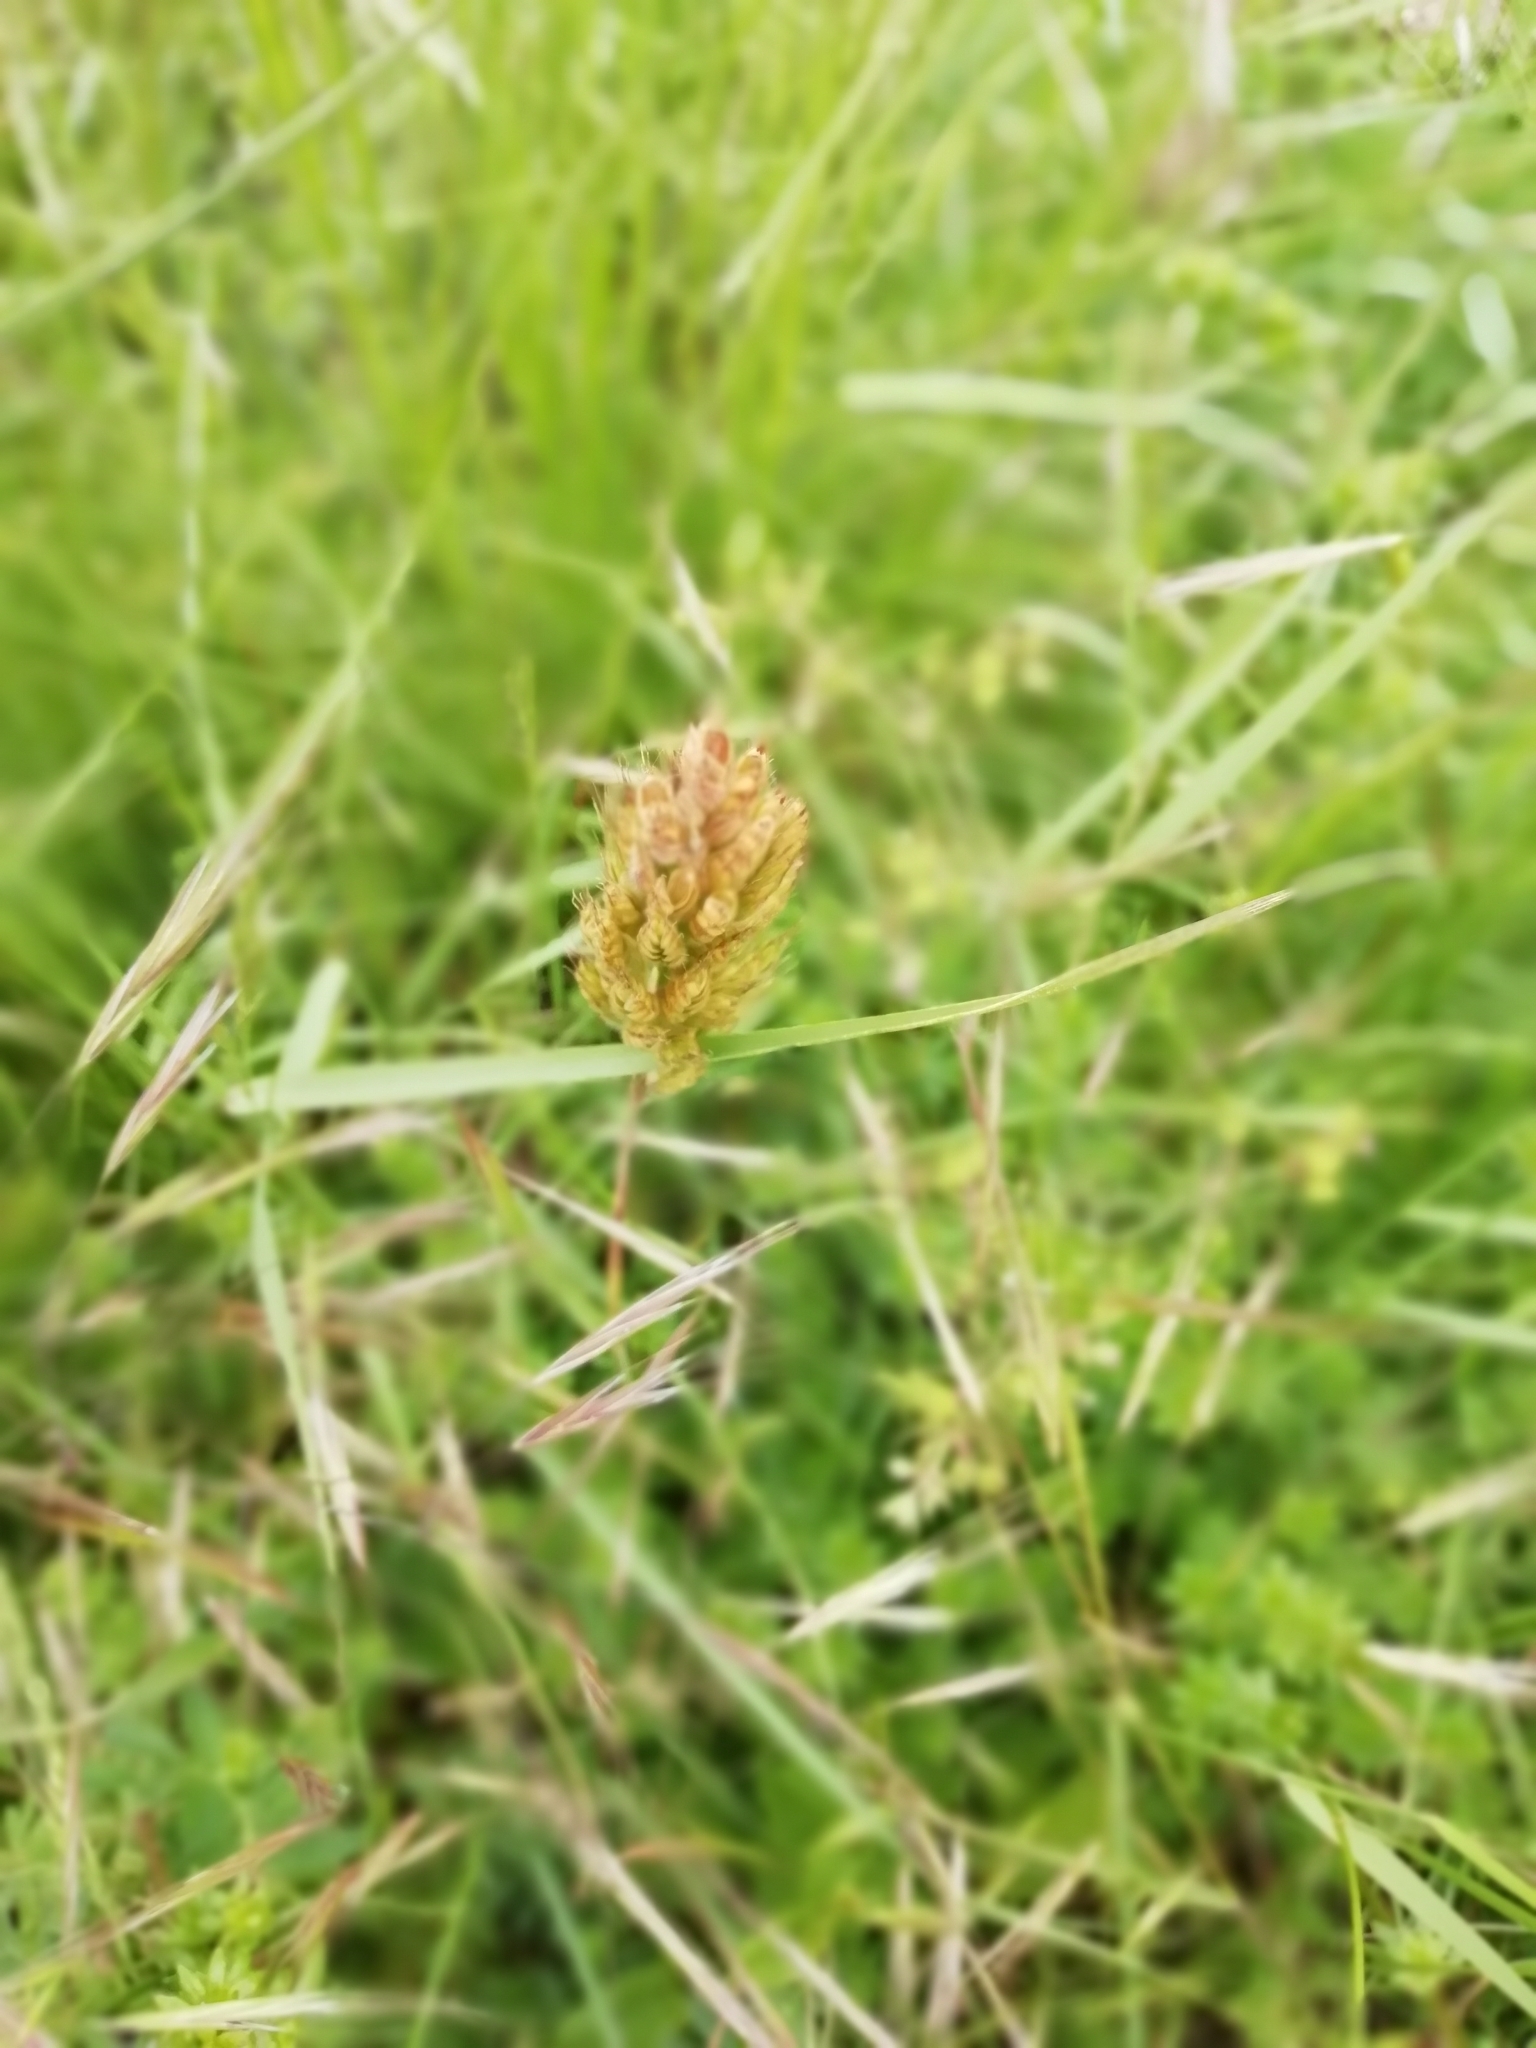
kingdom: Plantae
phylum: Tracheophyta
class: Liliopsida
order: Poales
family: Poaceae
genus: Bromus
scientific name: Bromus hordeaceus
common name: Soft brome
